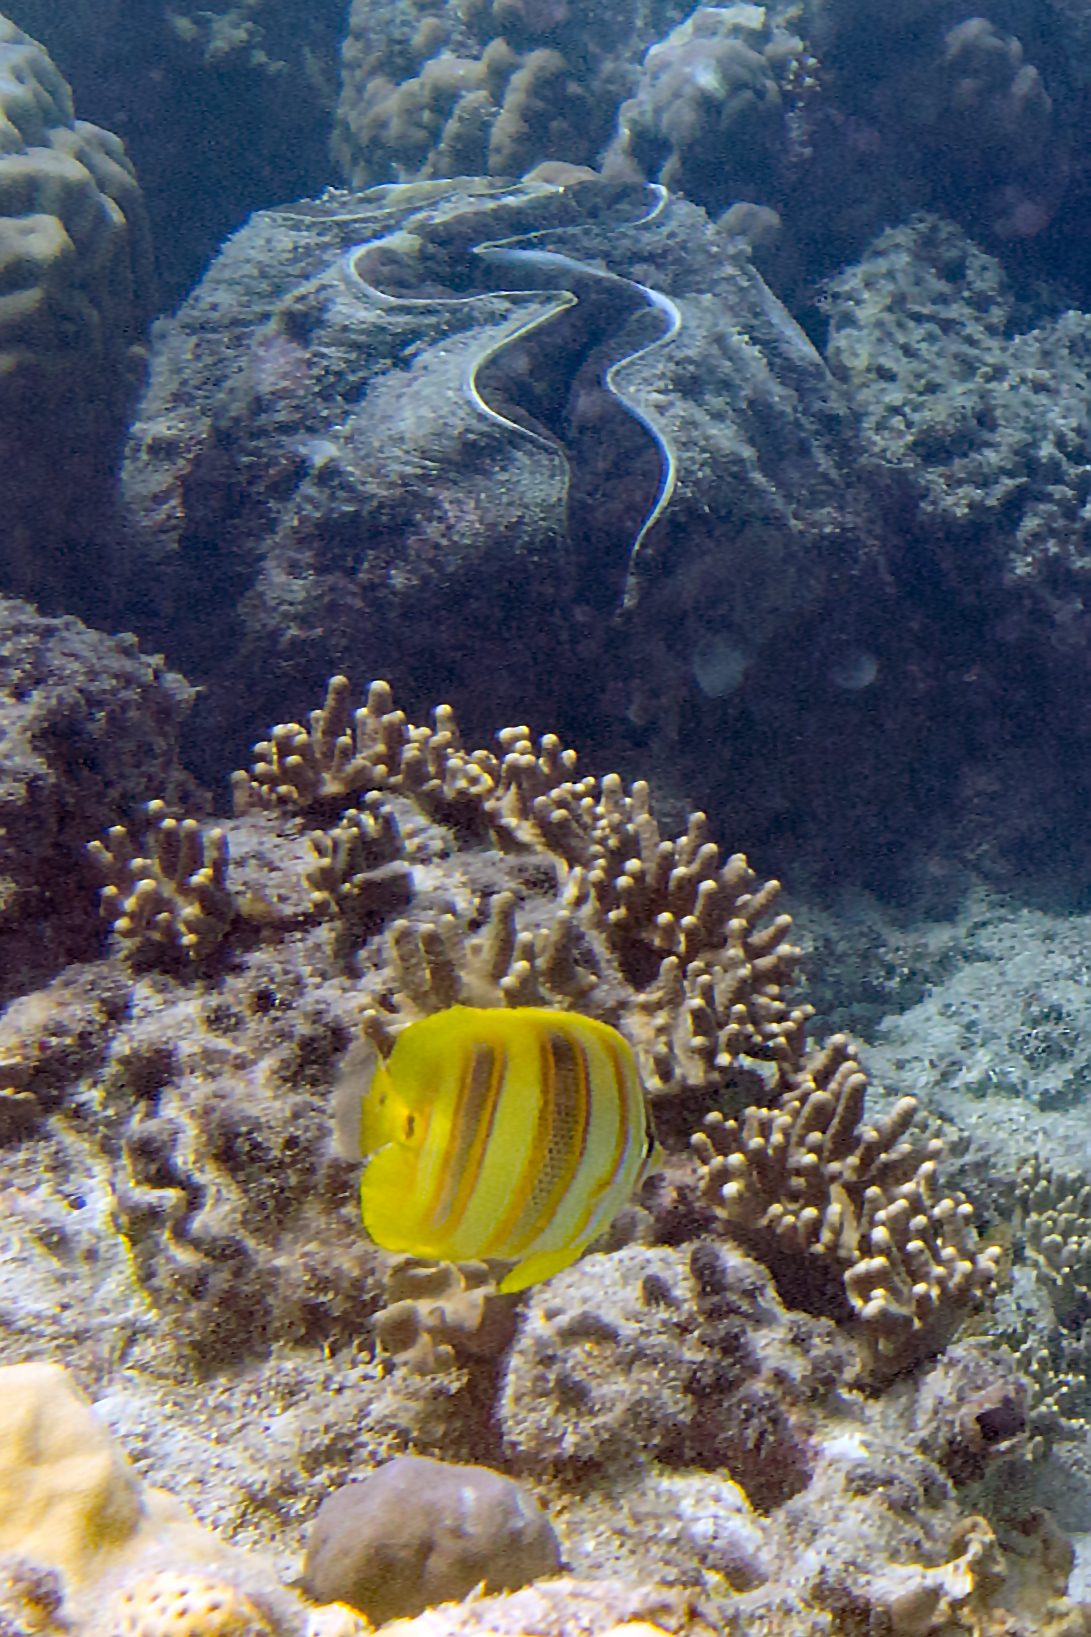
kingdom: Animalia
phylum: Chordata
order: Perciformes
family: Chaetodontidae
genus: Chaetodon
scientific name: Chaetodon rainfordi
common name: Rainford's butterflyfish
